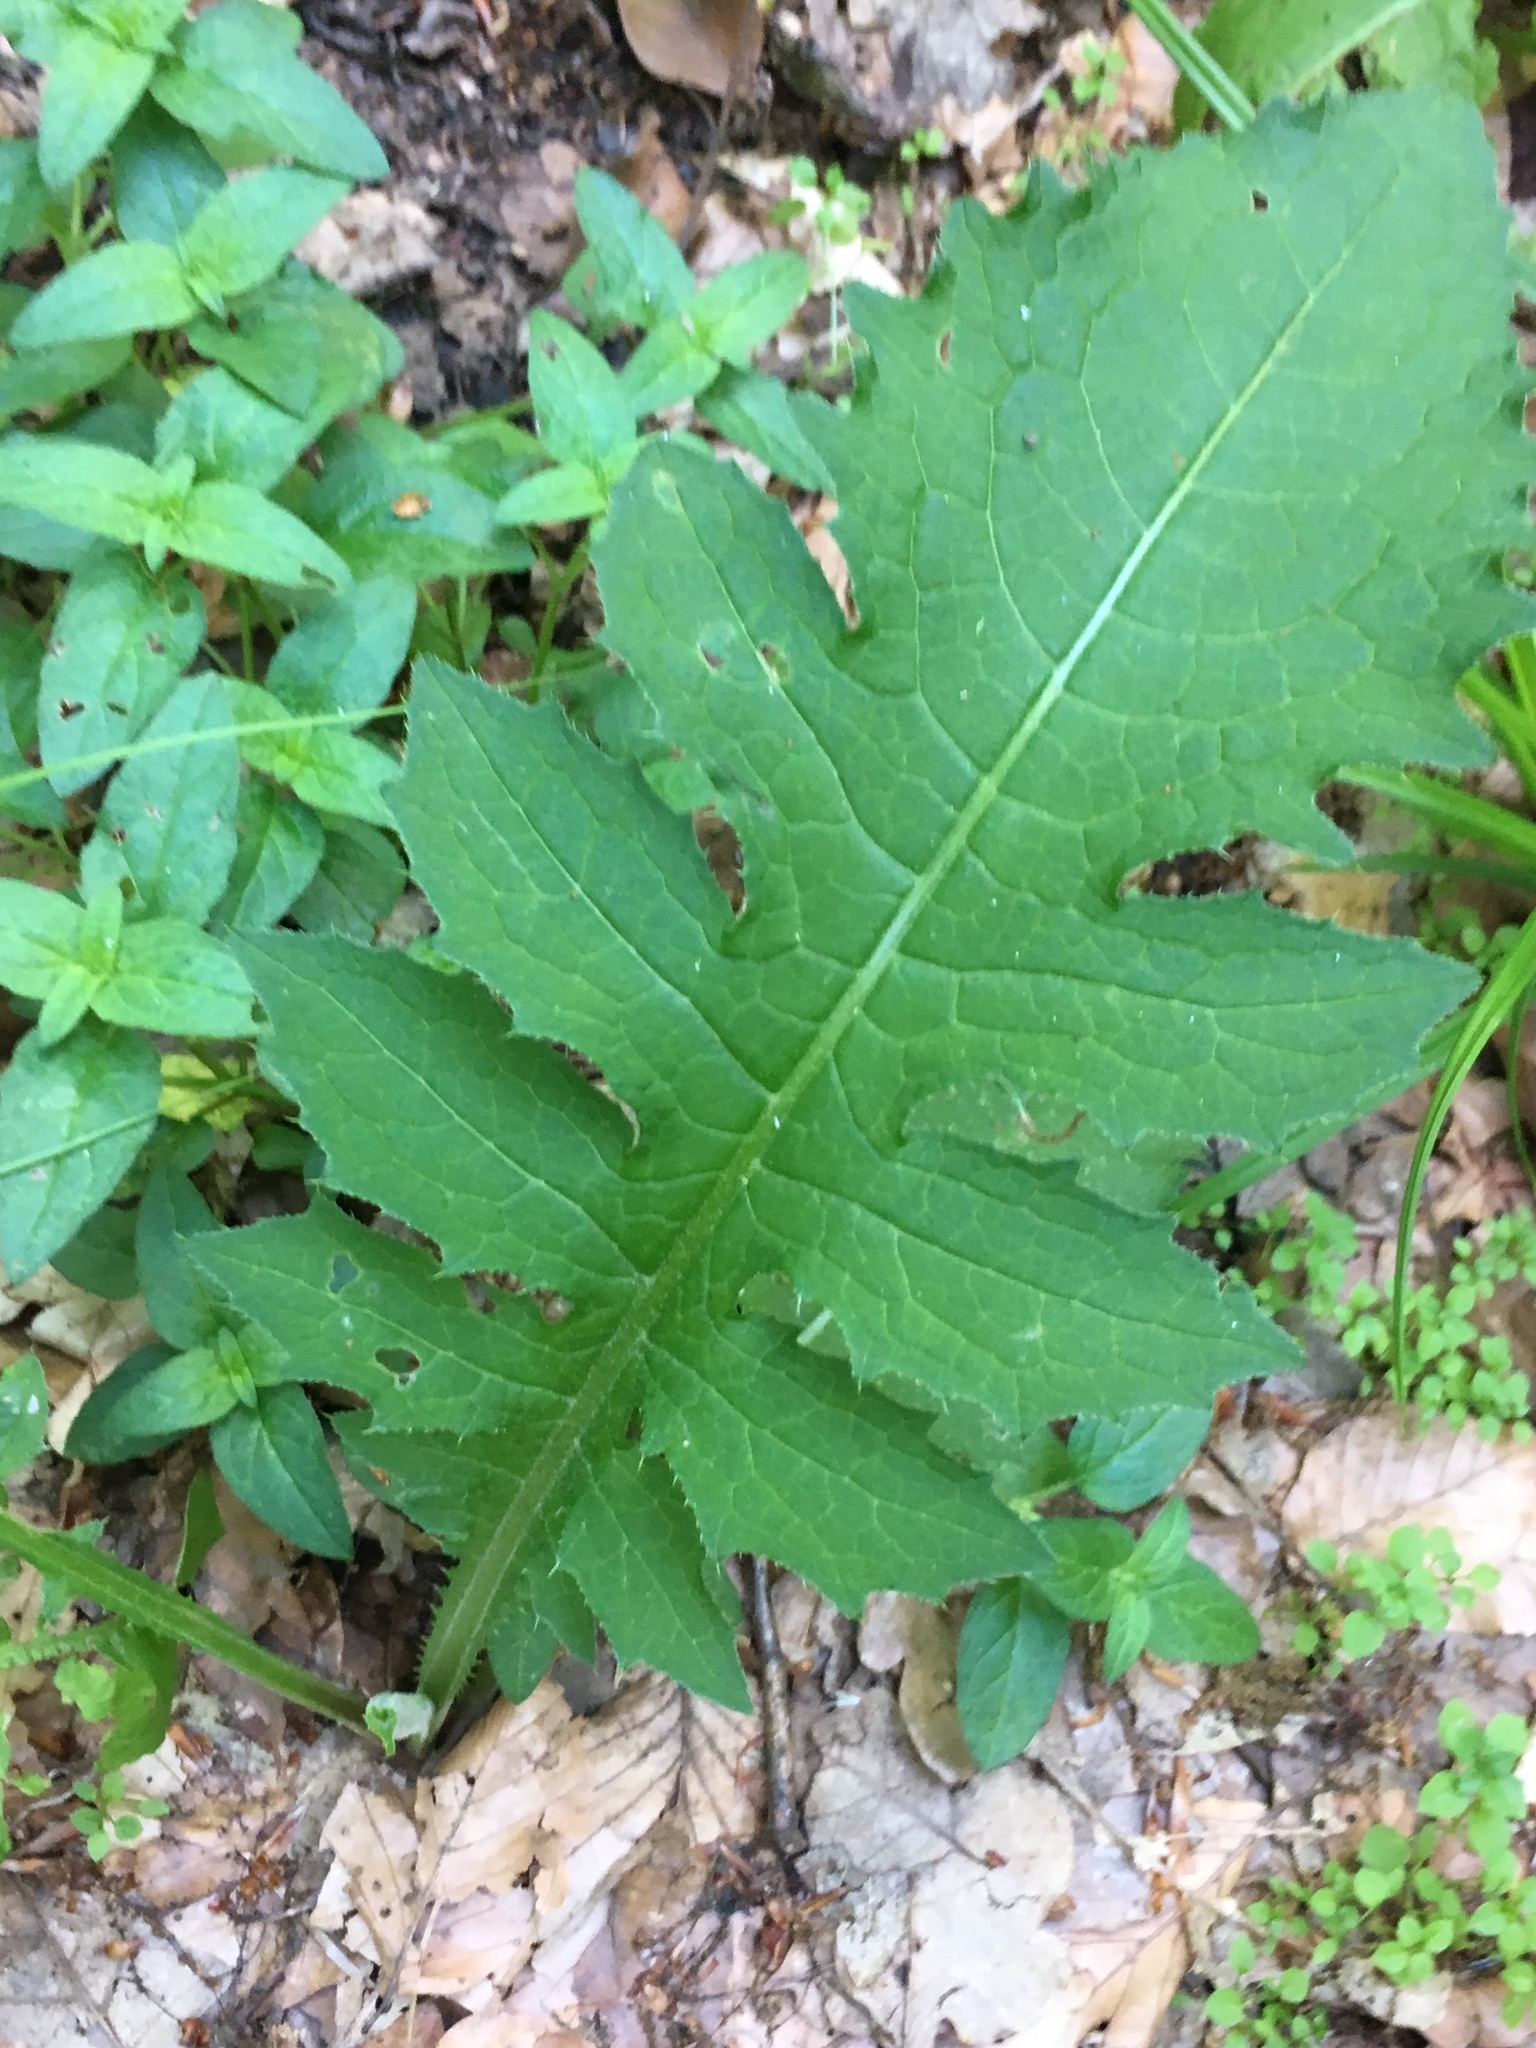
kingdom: Plantae
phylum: Tracheophyta
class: Magnoliopsida
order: Asterales
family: Asteraceae
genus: Cirsium
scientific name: Cirsium oleraceum
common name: Cabbage thistle
